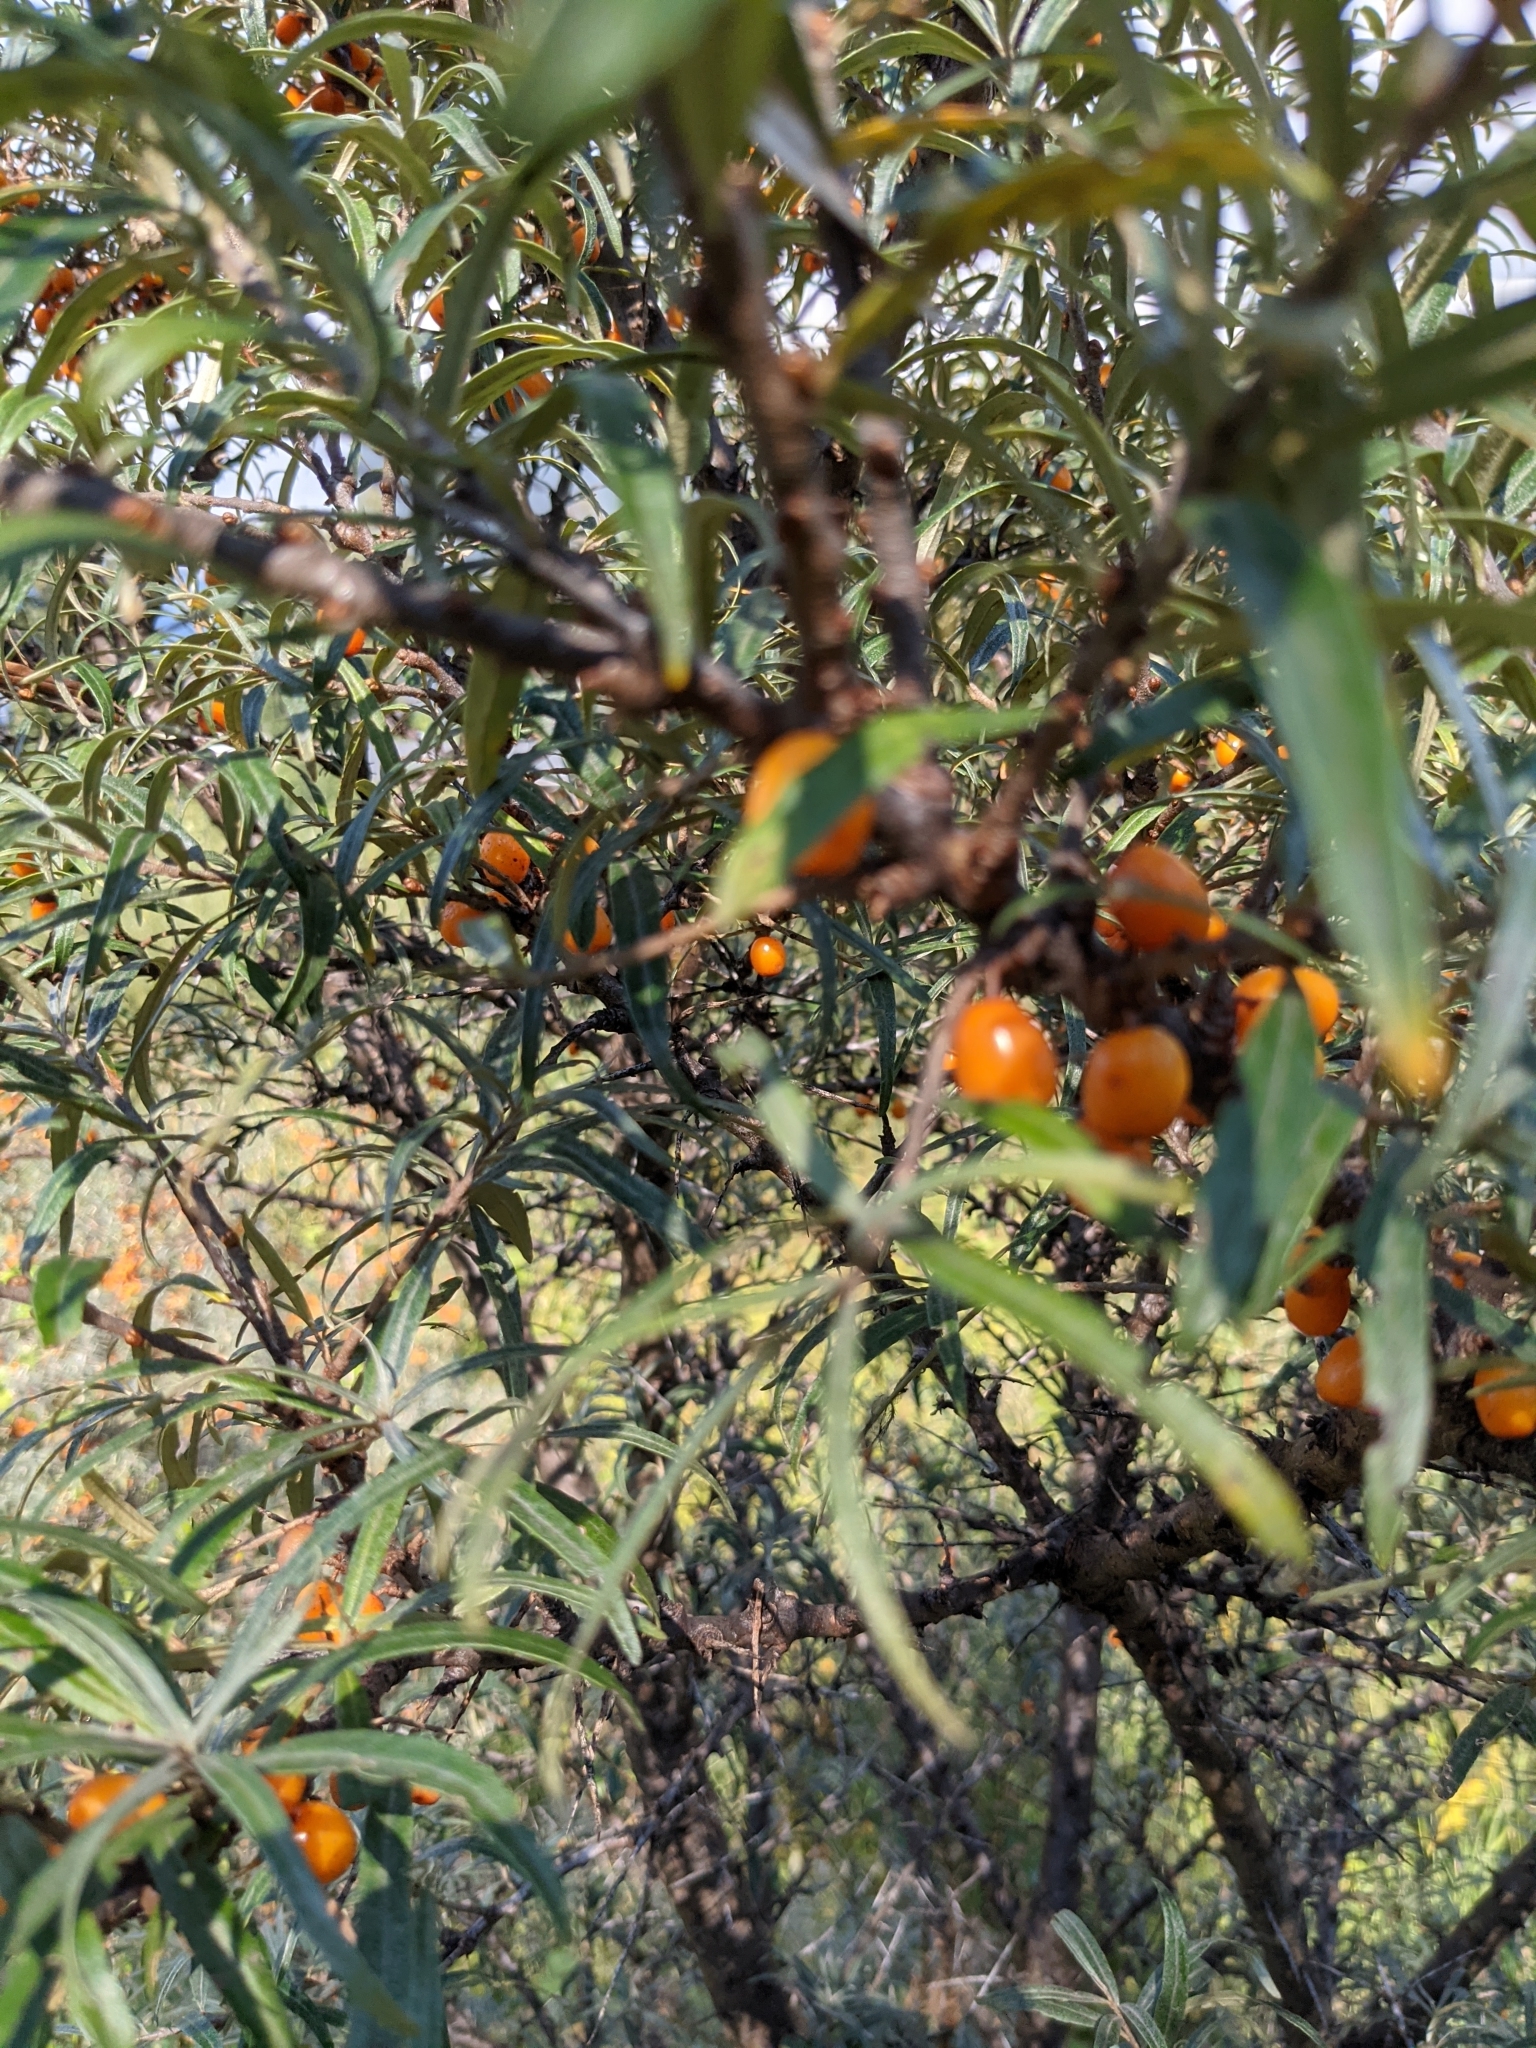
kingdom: Plantae
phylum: Tracheophyta
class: Magnoliopsida
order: Rosales
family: Elaeagnaceae
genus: Hippophae
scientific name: Hippophae rhamnoides
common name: Sea-buckthorn
